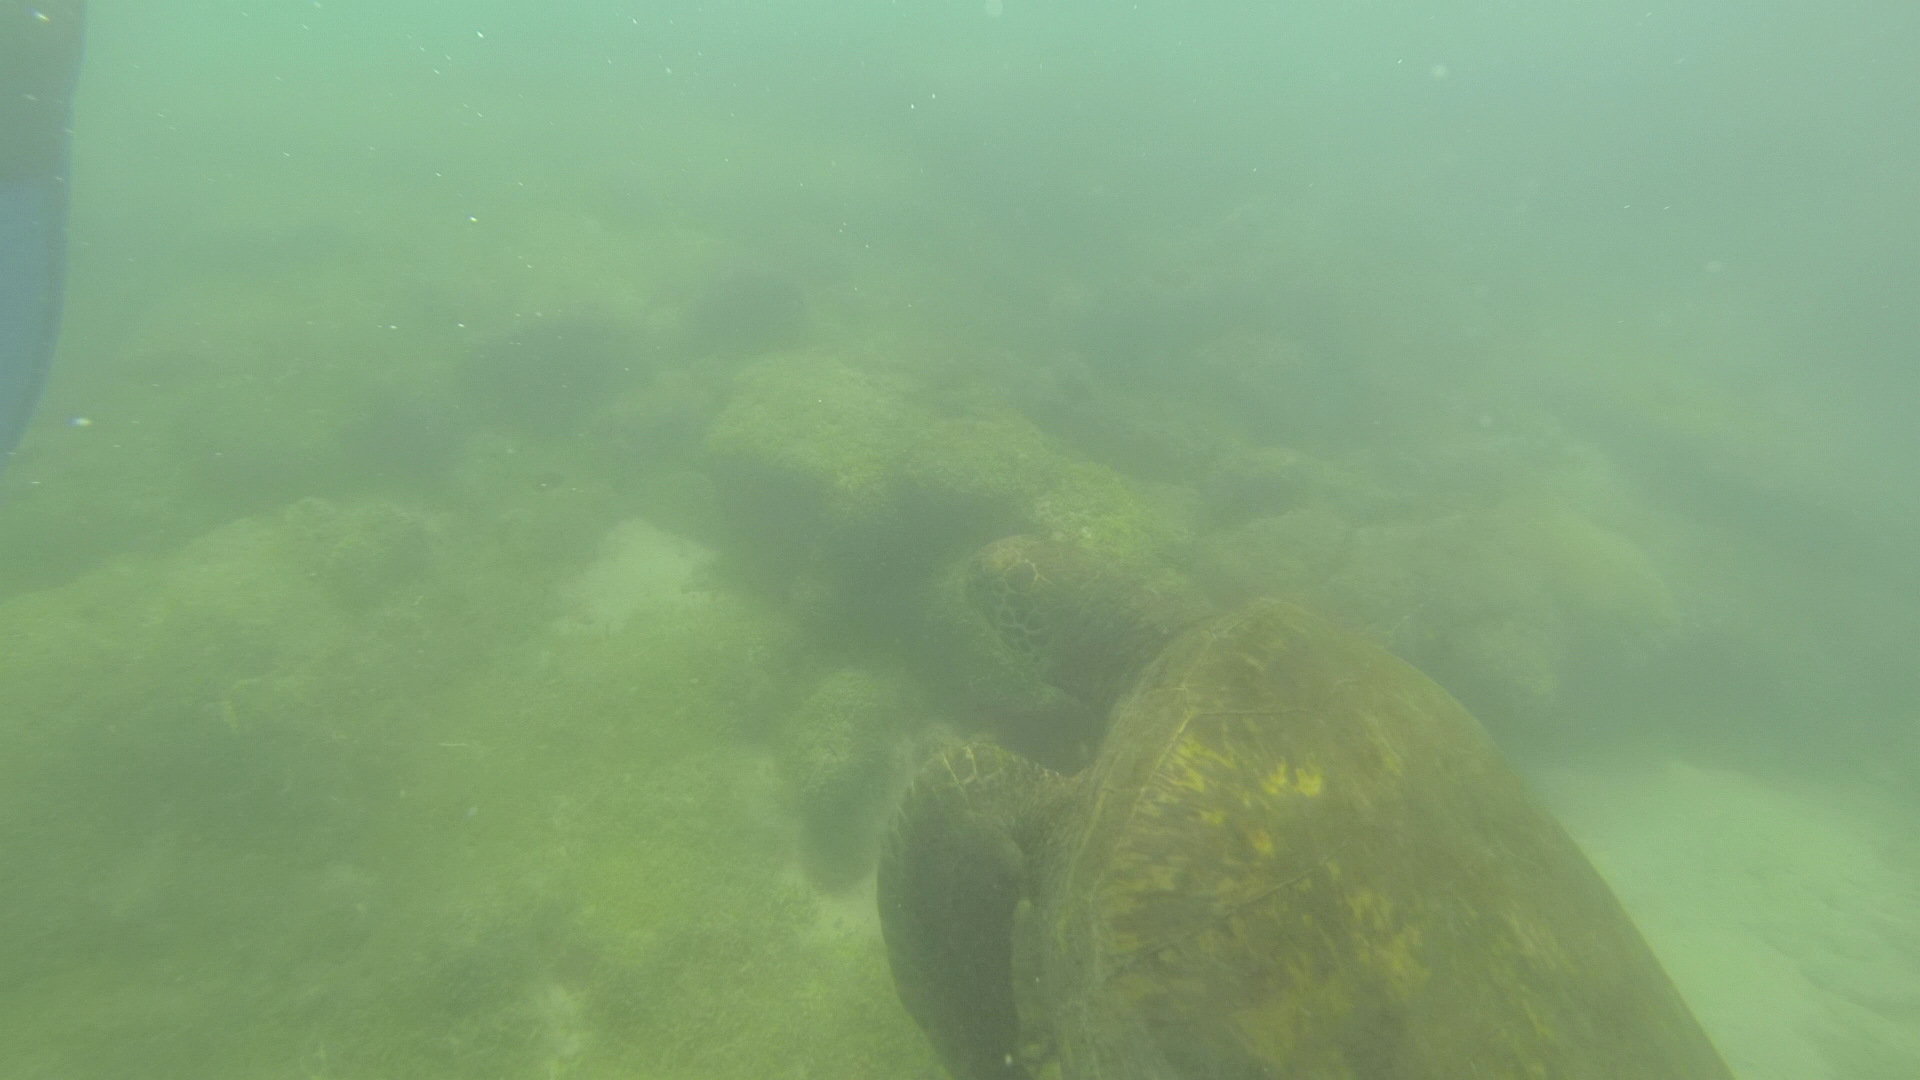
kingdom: Animalia
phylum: Chordata
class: Testudines
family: Cheloniidae
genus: Chelonia
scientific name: Chelonia mydas
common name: Green turtle
